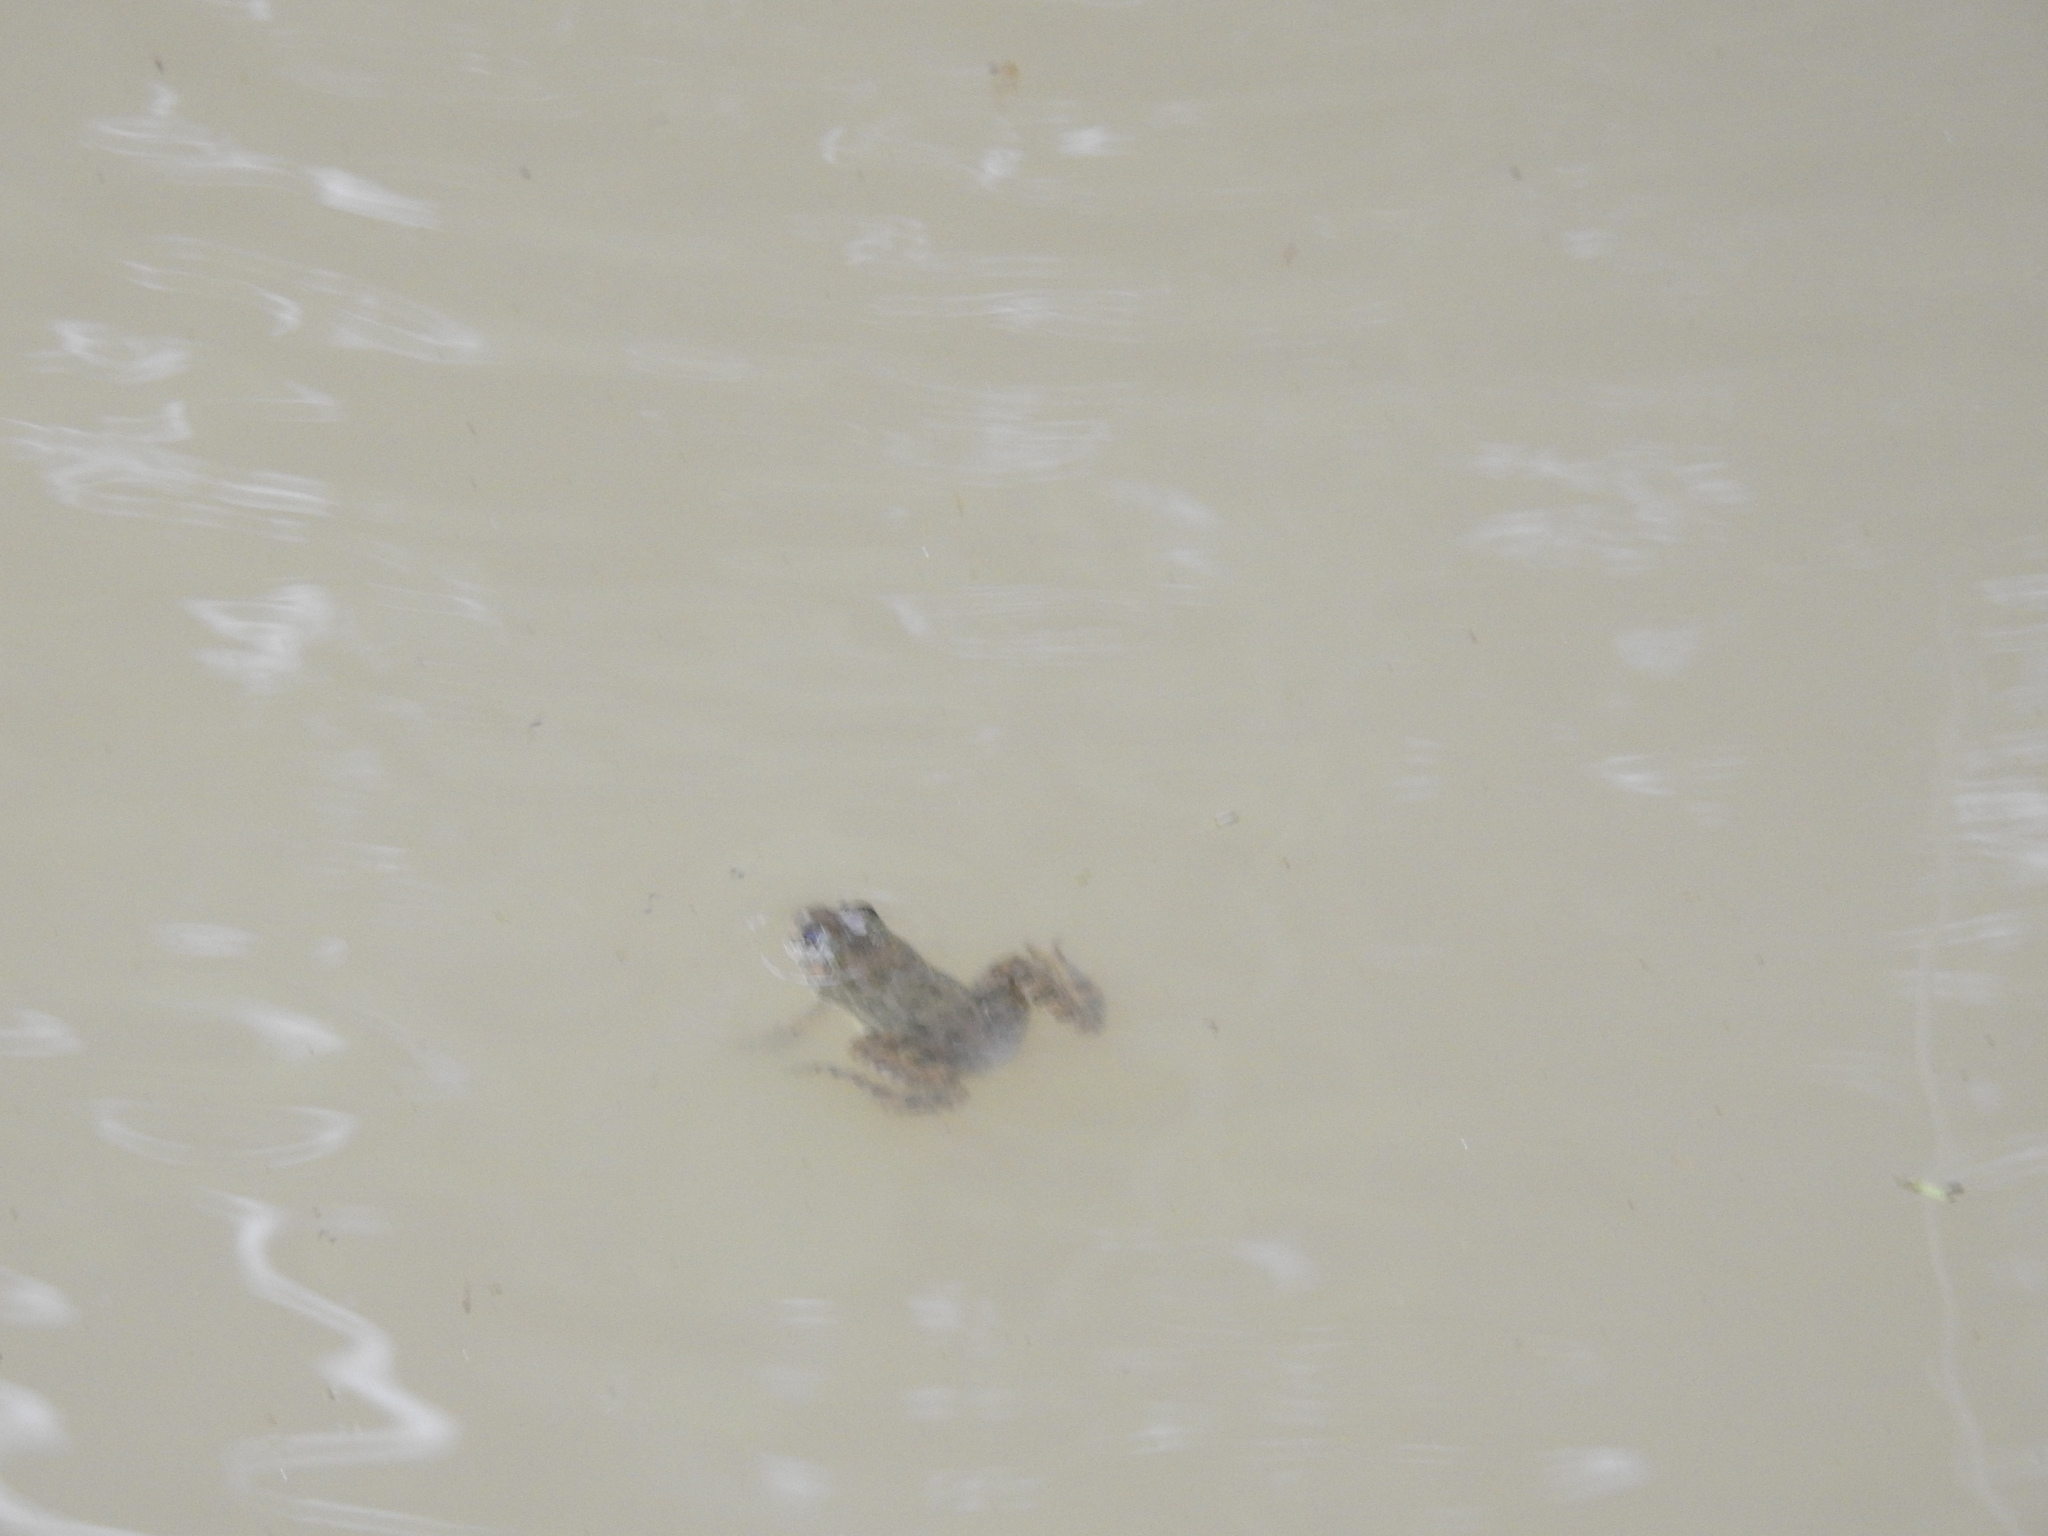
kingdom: Animalia
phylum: Chordata
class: Amphibia
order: Anura
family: Dicroglossidae
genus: Euphlyctis
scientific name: Euphlyctis cyanophlyctis
